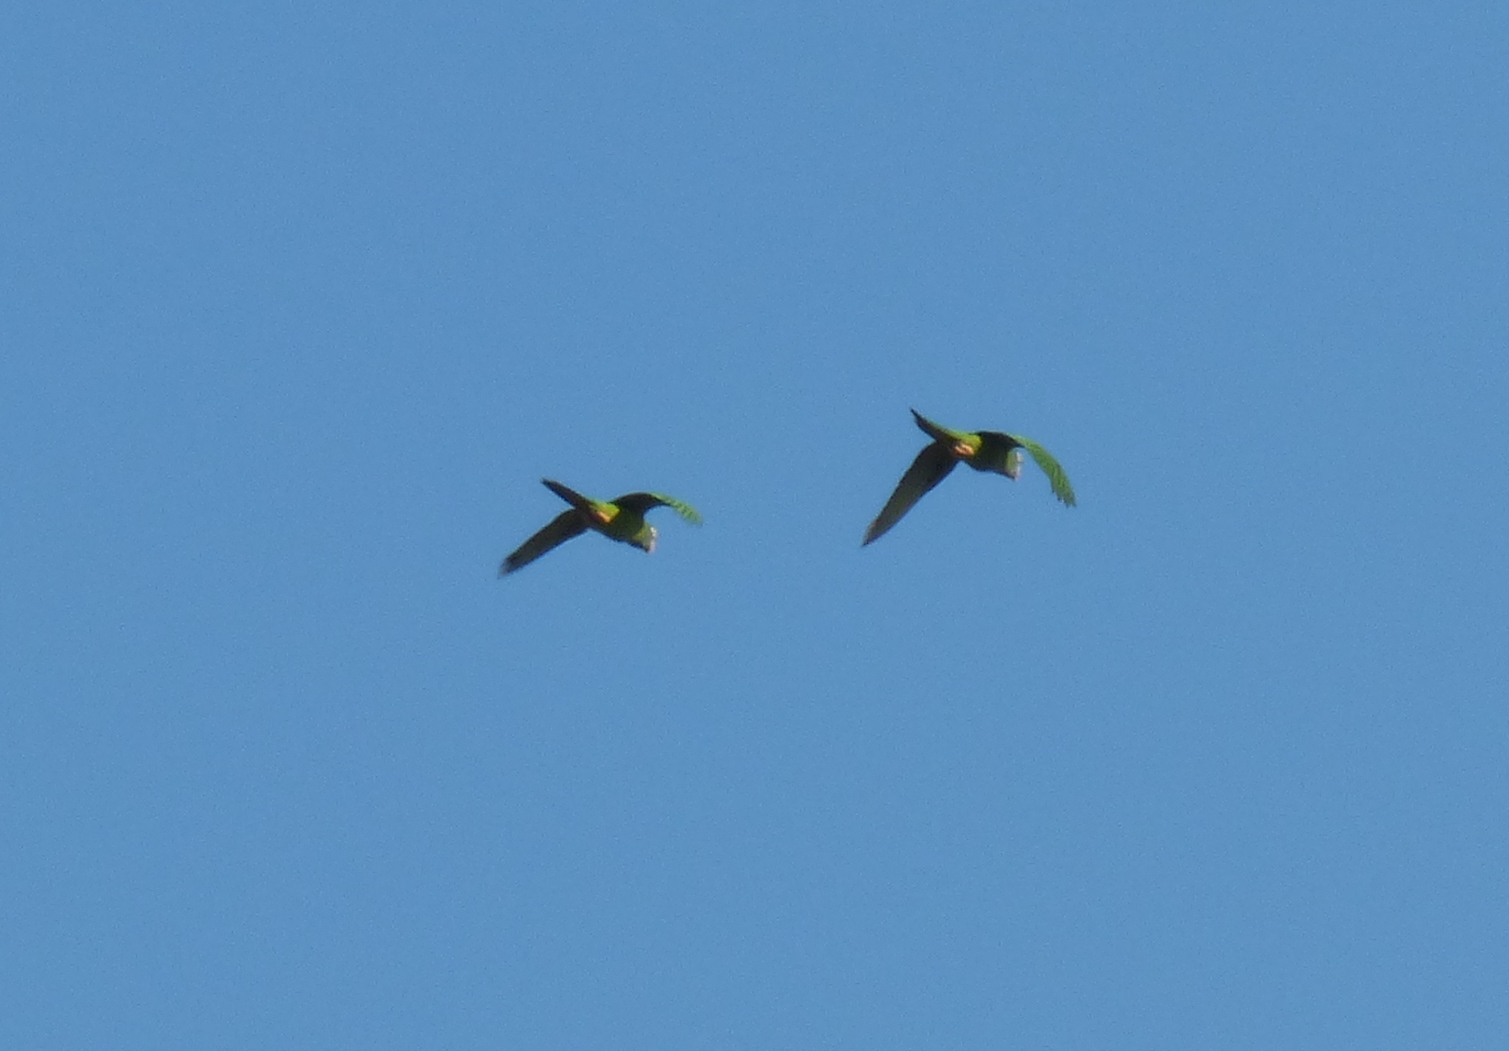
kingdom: Animalia
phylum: Chordata
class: Aves
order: Psittaciformes
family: Psittacidae
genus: Aratinga
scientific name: Aratinga acuticaudata
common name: Blue-crowned parakeet
